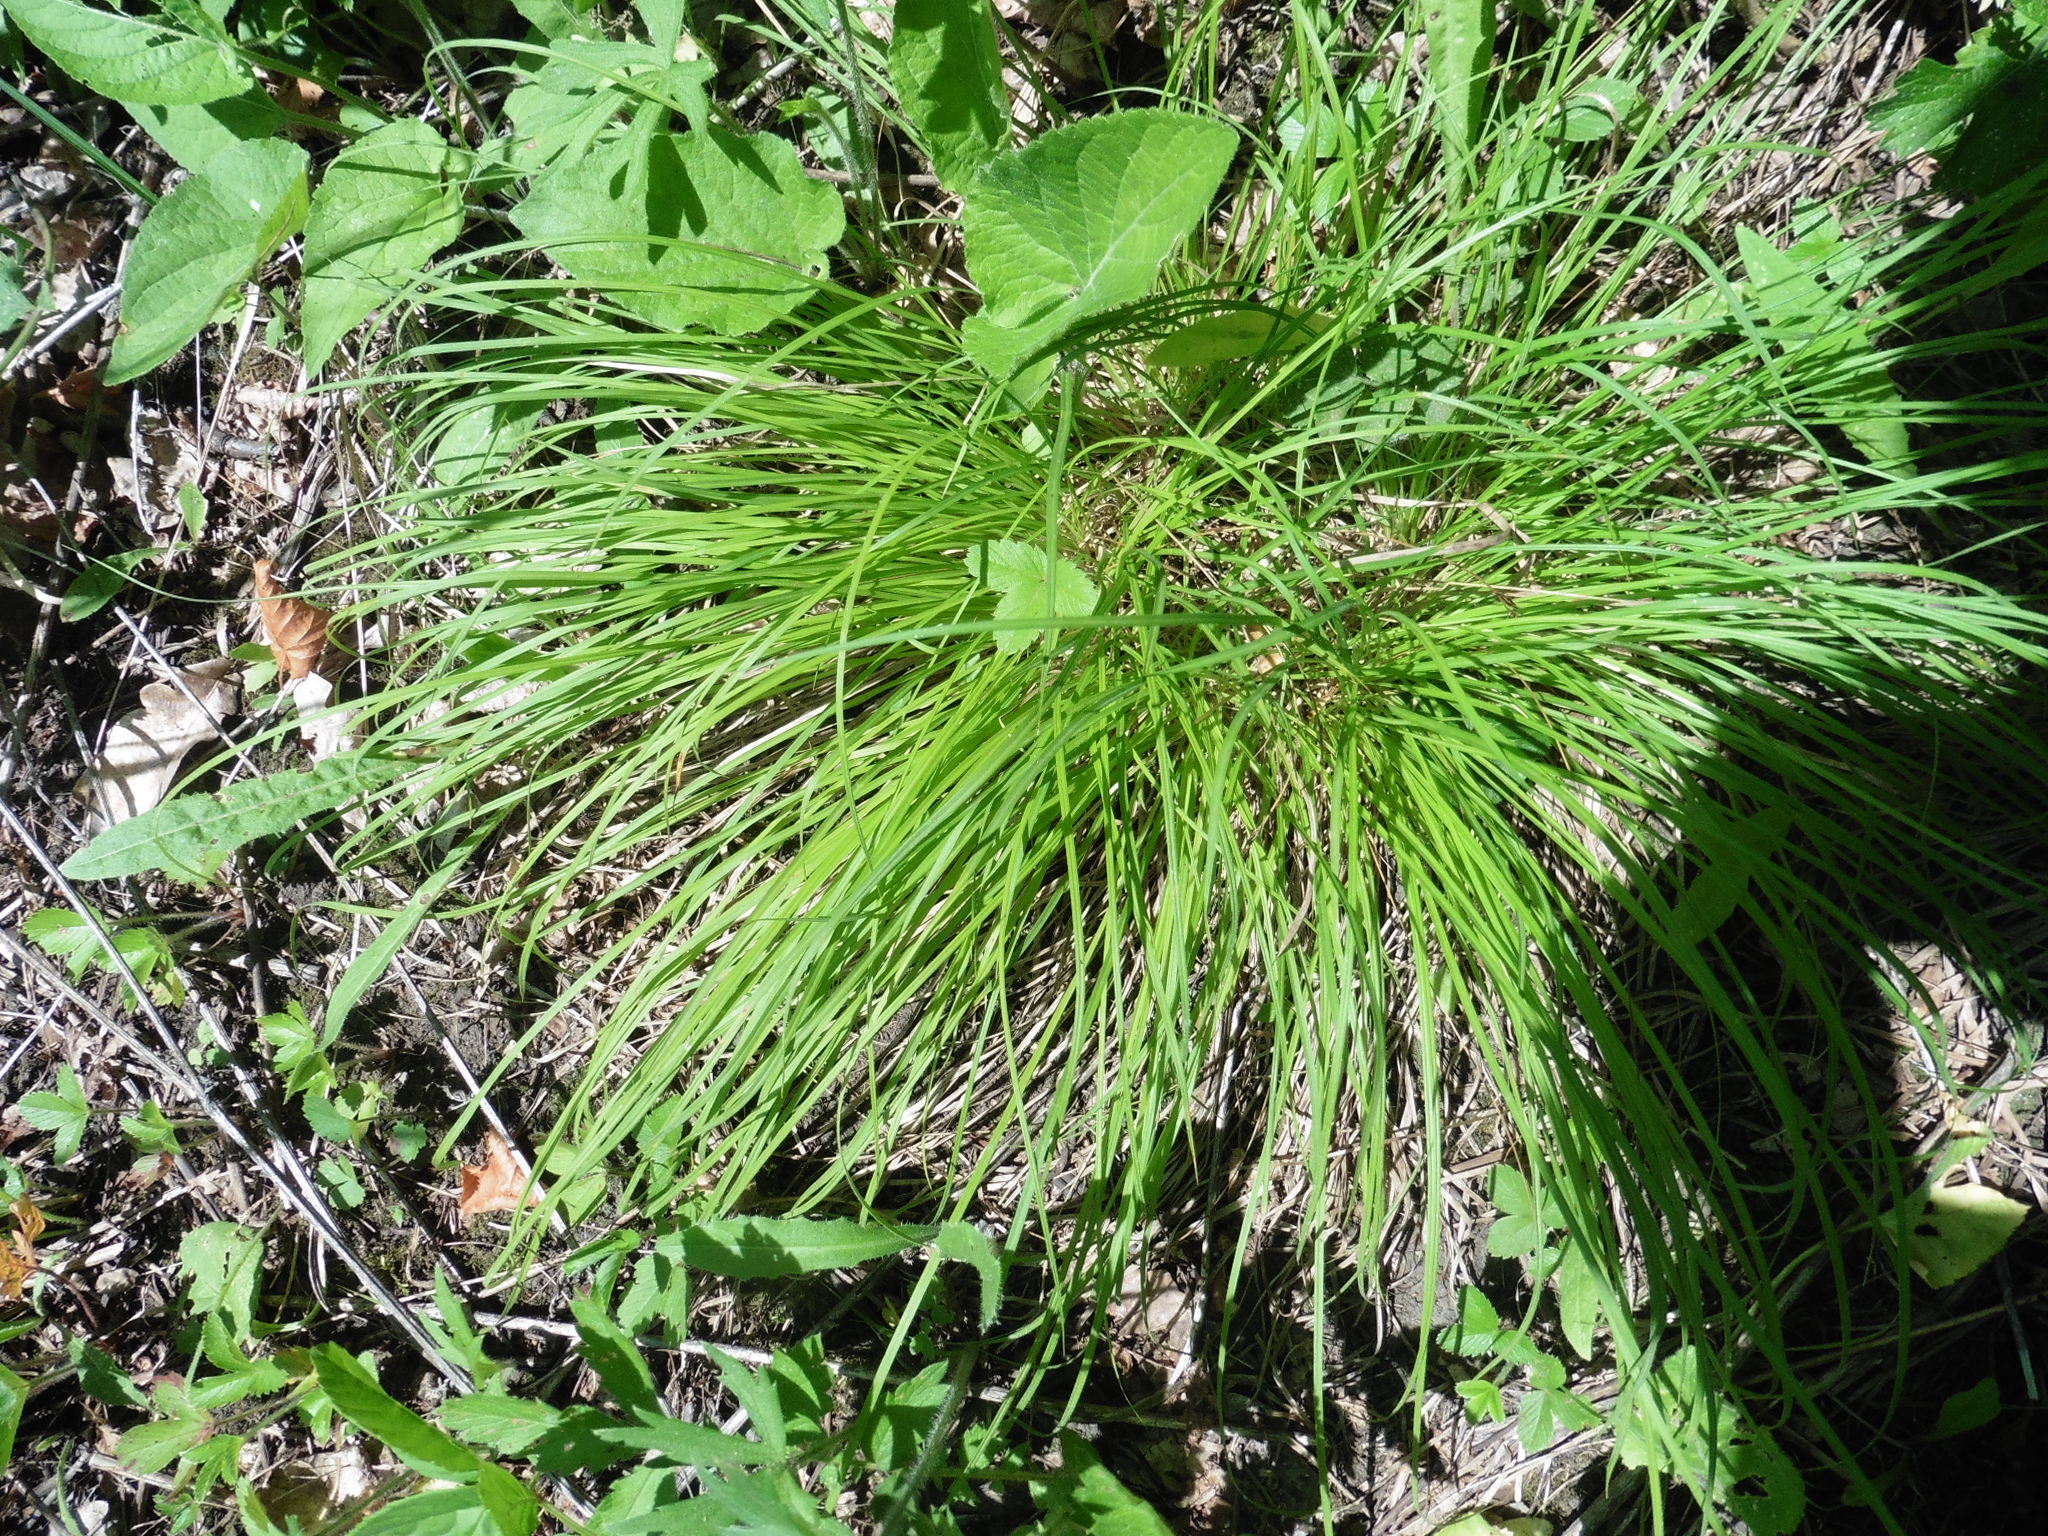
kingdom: Plantae
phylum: Tracheophyta
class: Liliopsida
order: Poales
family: Cyperaceae
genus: Carex
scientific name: Carex montana
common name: Soft-leaved sedge
